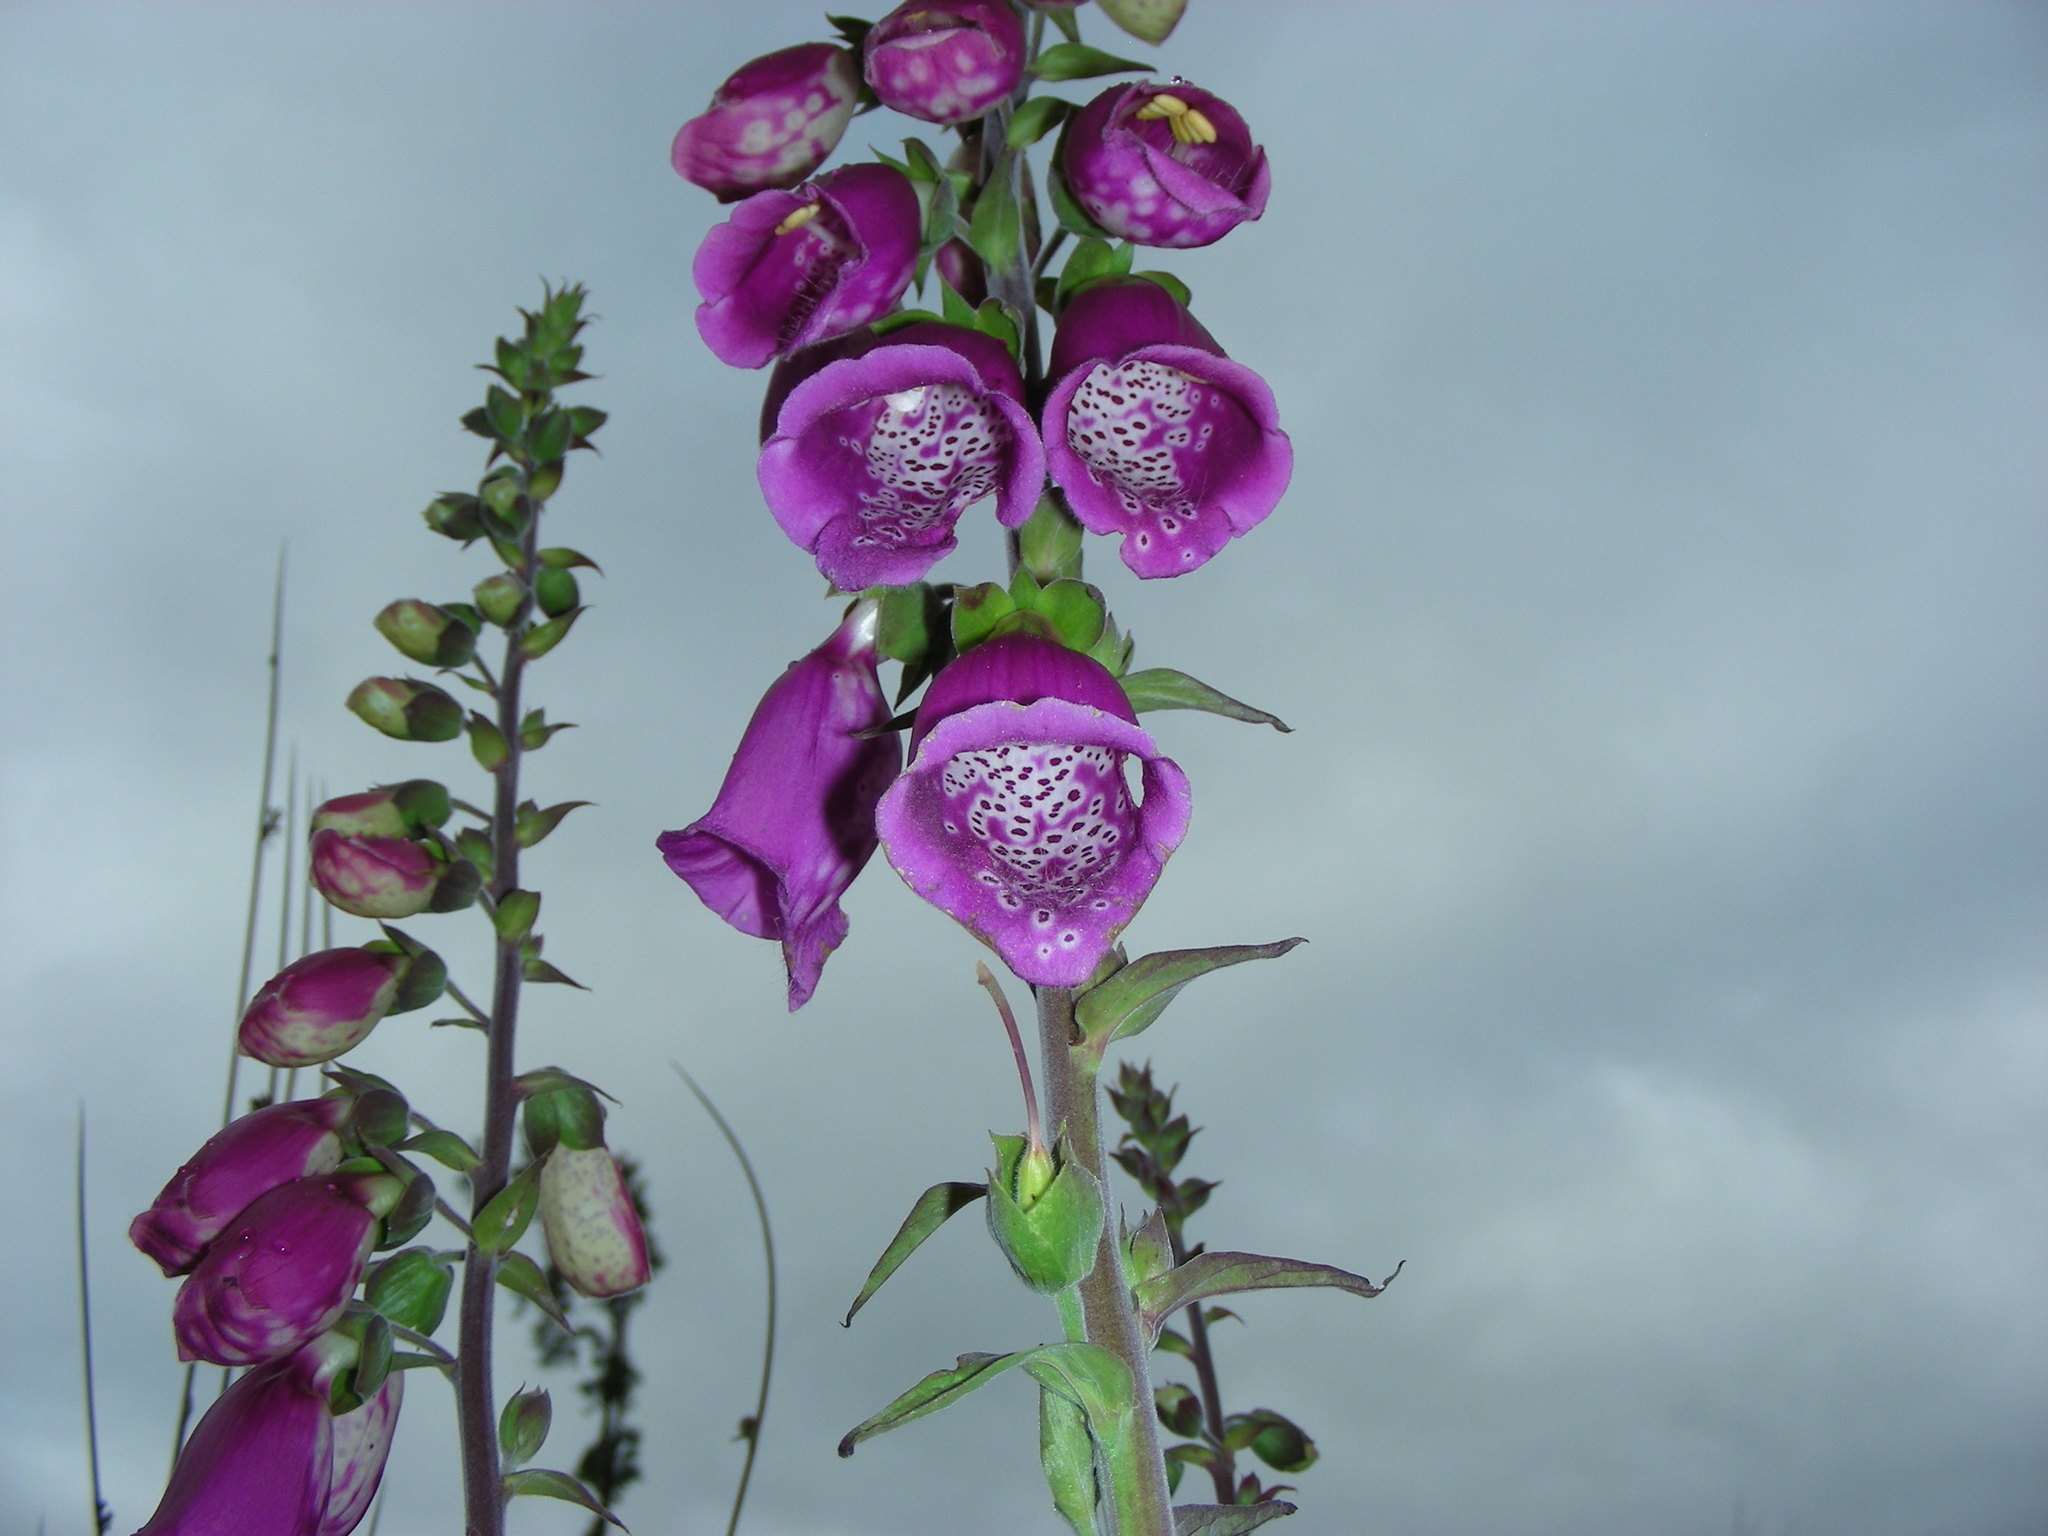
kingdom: Plantae
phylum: Tracheophyta
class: Magnoliopsida
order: Lamiales
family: Plantaginaceae
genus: Digitalis
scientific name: Digitalis purpurea
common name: Foxglove
